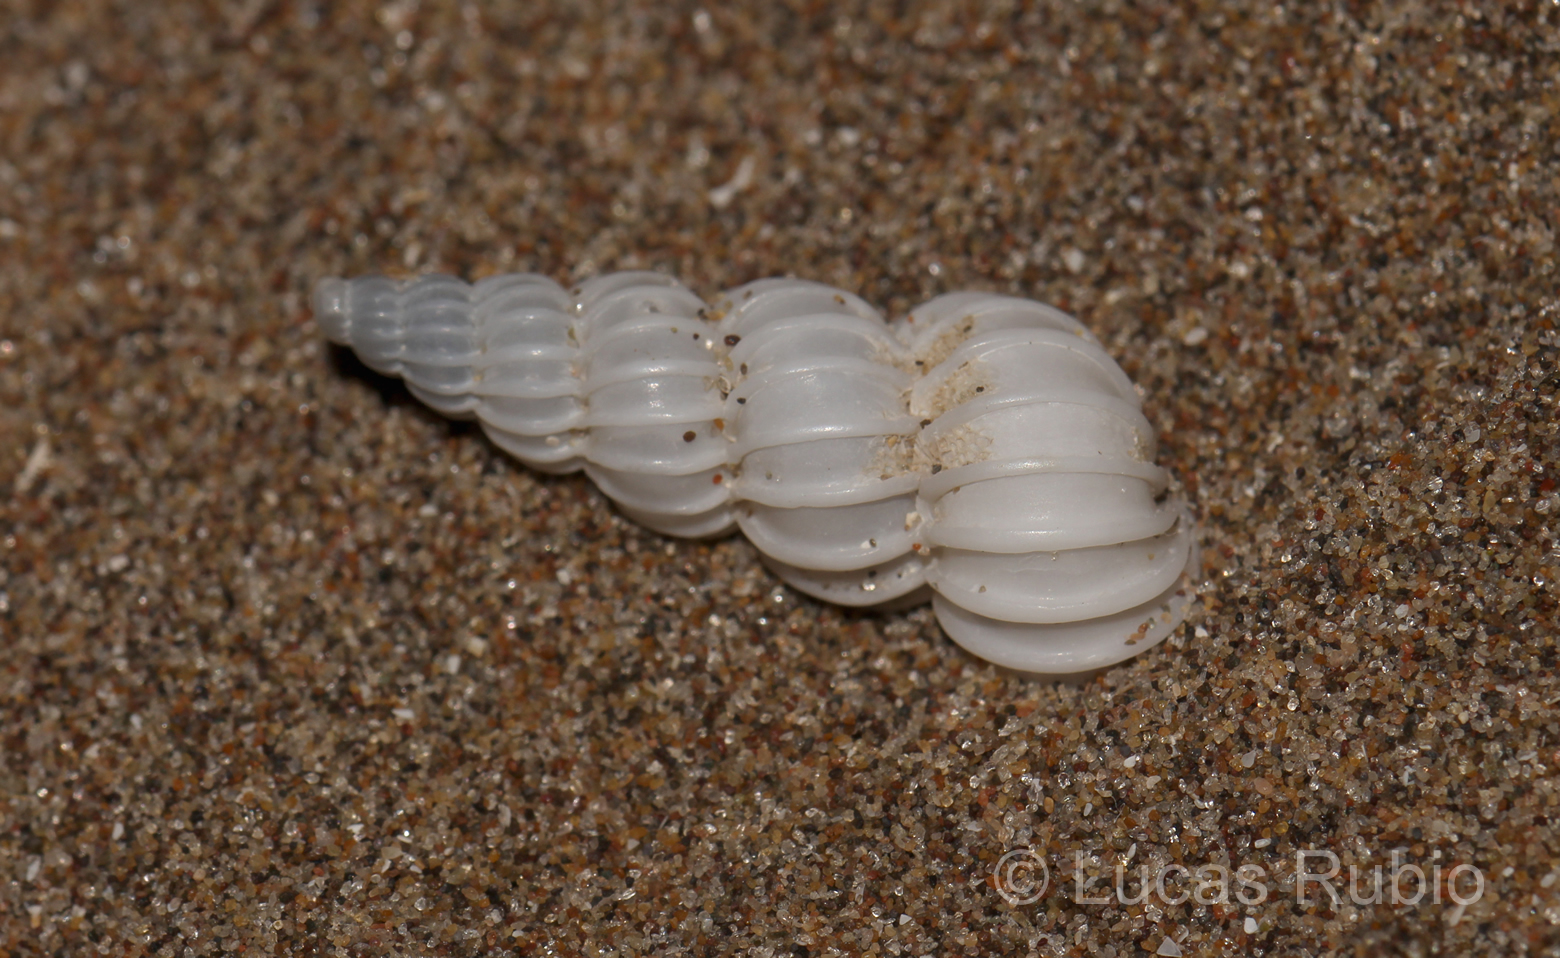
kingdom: Animalia
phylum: Mollusca
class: Gastropoda
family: Epitoniidae
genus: Epitonium
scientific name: Epitonium georgettinum
